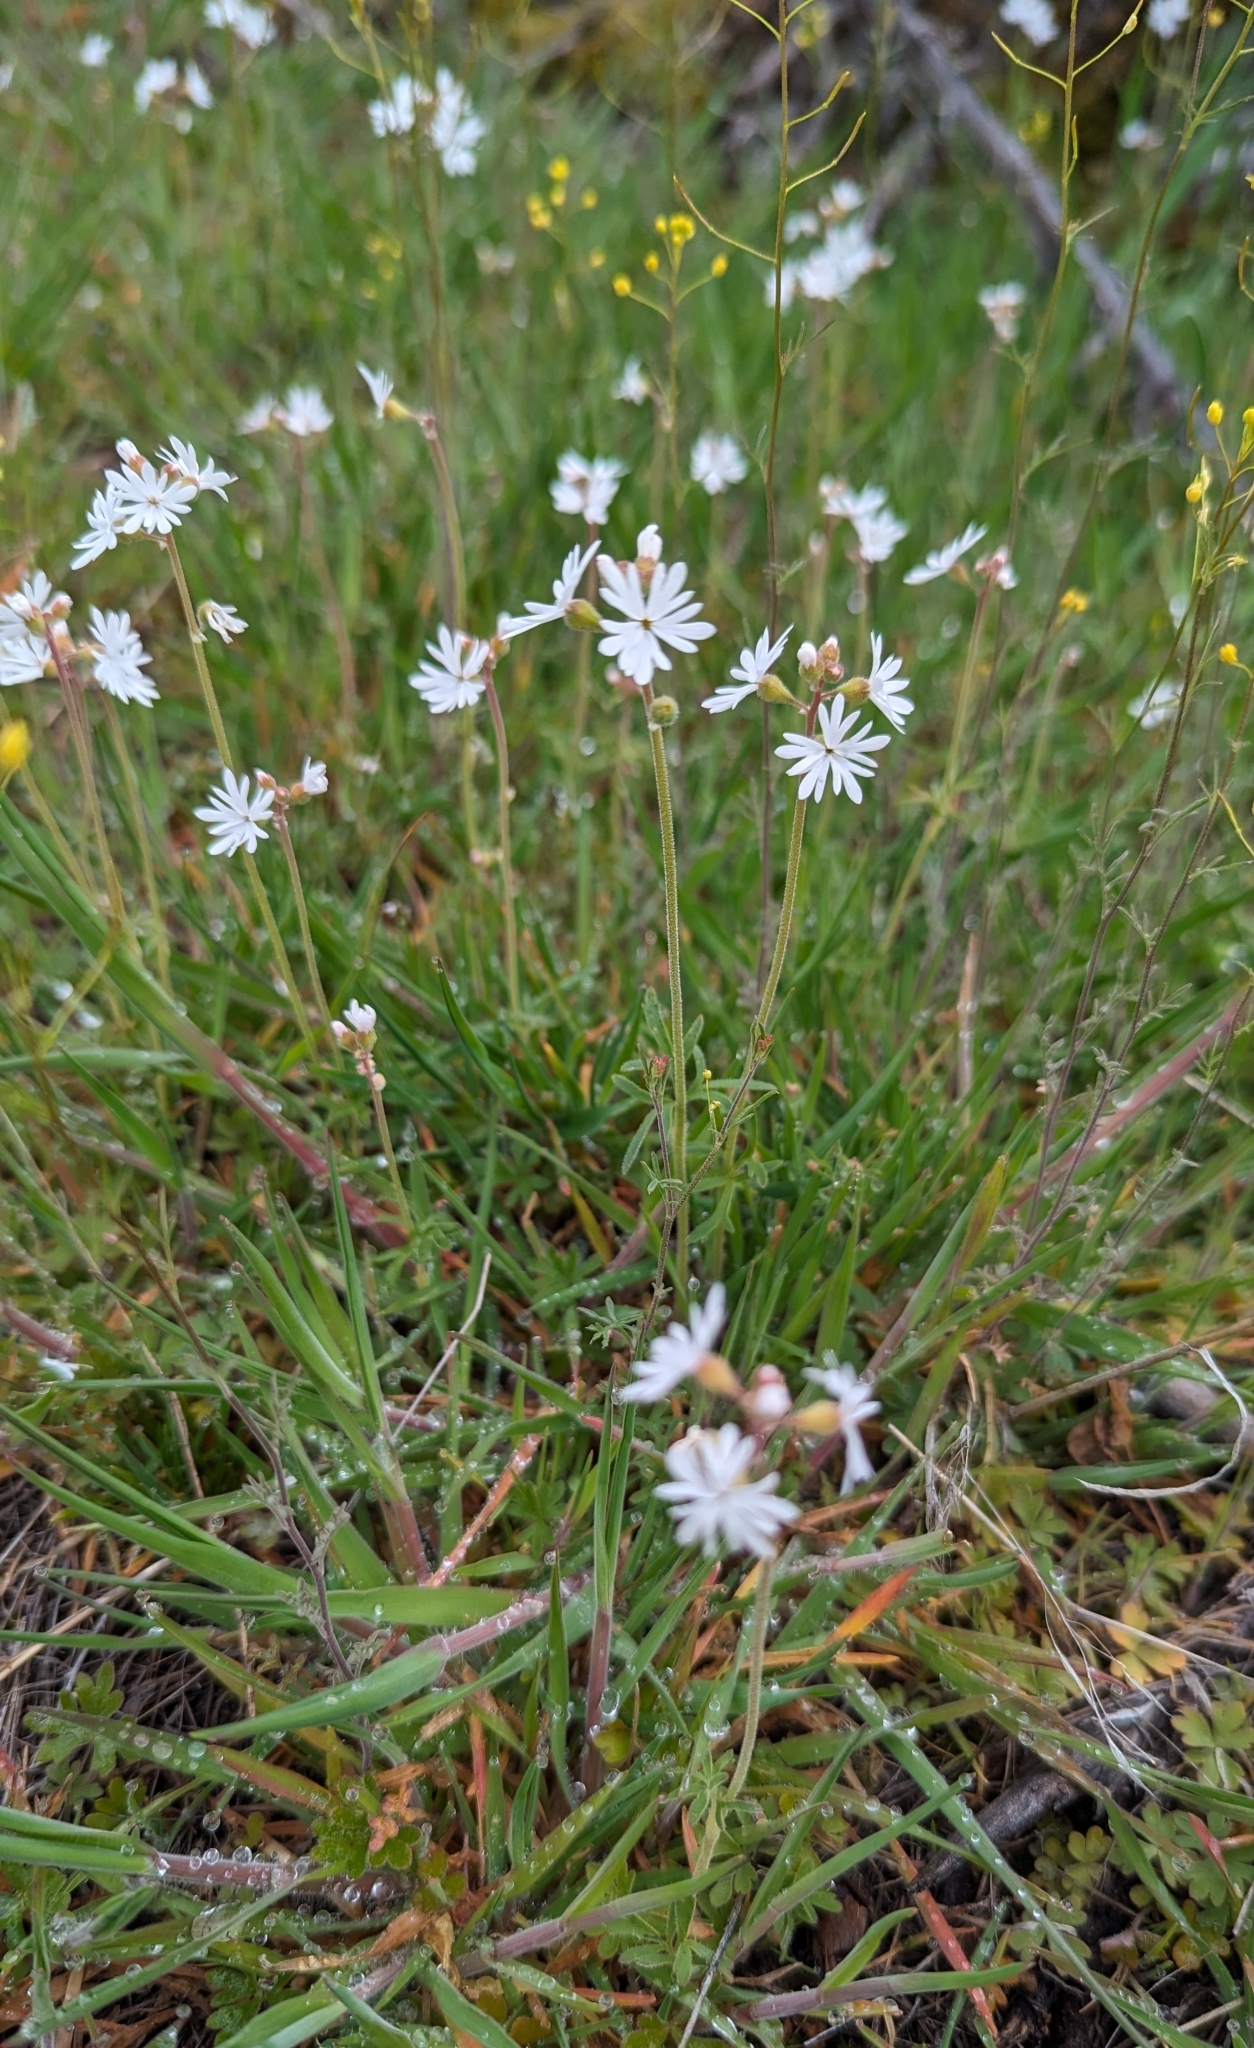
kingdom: Plantae
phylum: Tracheophyta
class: Magnoliopsida
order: Saxifragales
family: Saxifragaceae
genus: Lithophragma
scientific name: Lithophragma parviflorum
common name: Small-flowered fringe-cup
